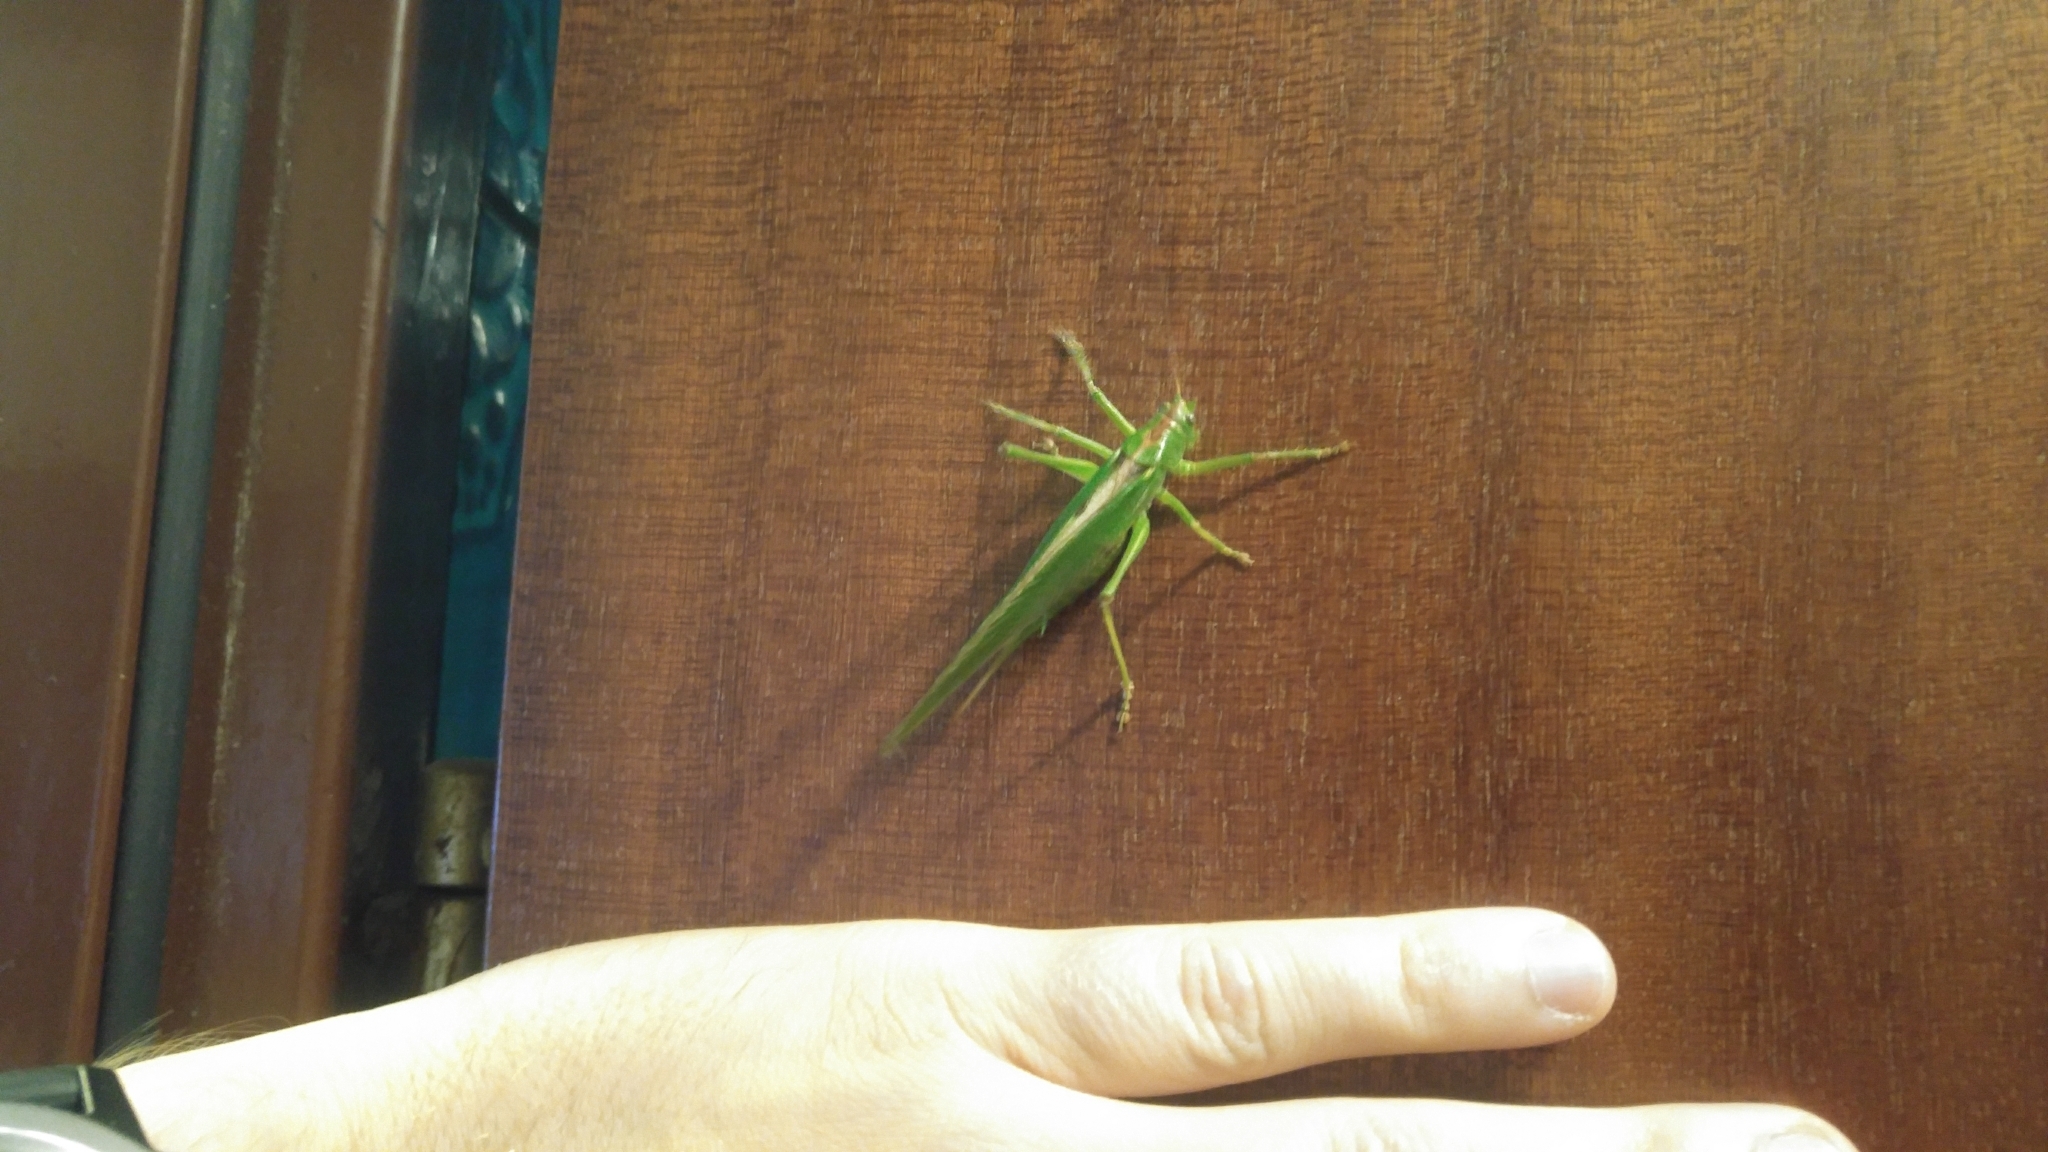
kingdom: Animalia
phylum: Arthropoda
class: Insecta
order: Orthoptera
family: Tettigoniidae
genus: Tettigonia
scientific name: Tettigonia viridissima
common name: Great green bush-cricket
